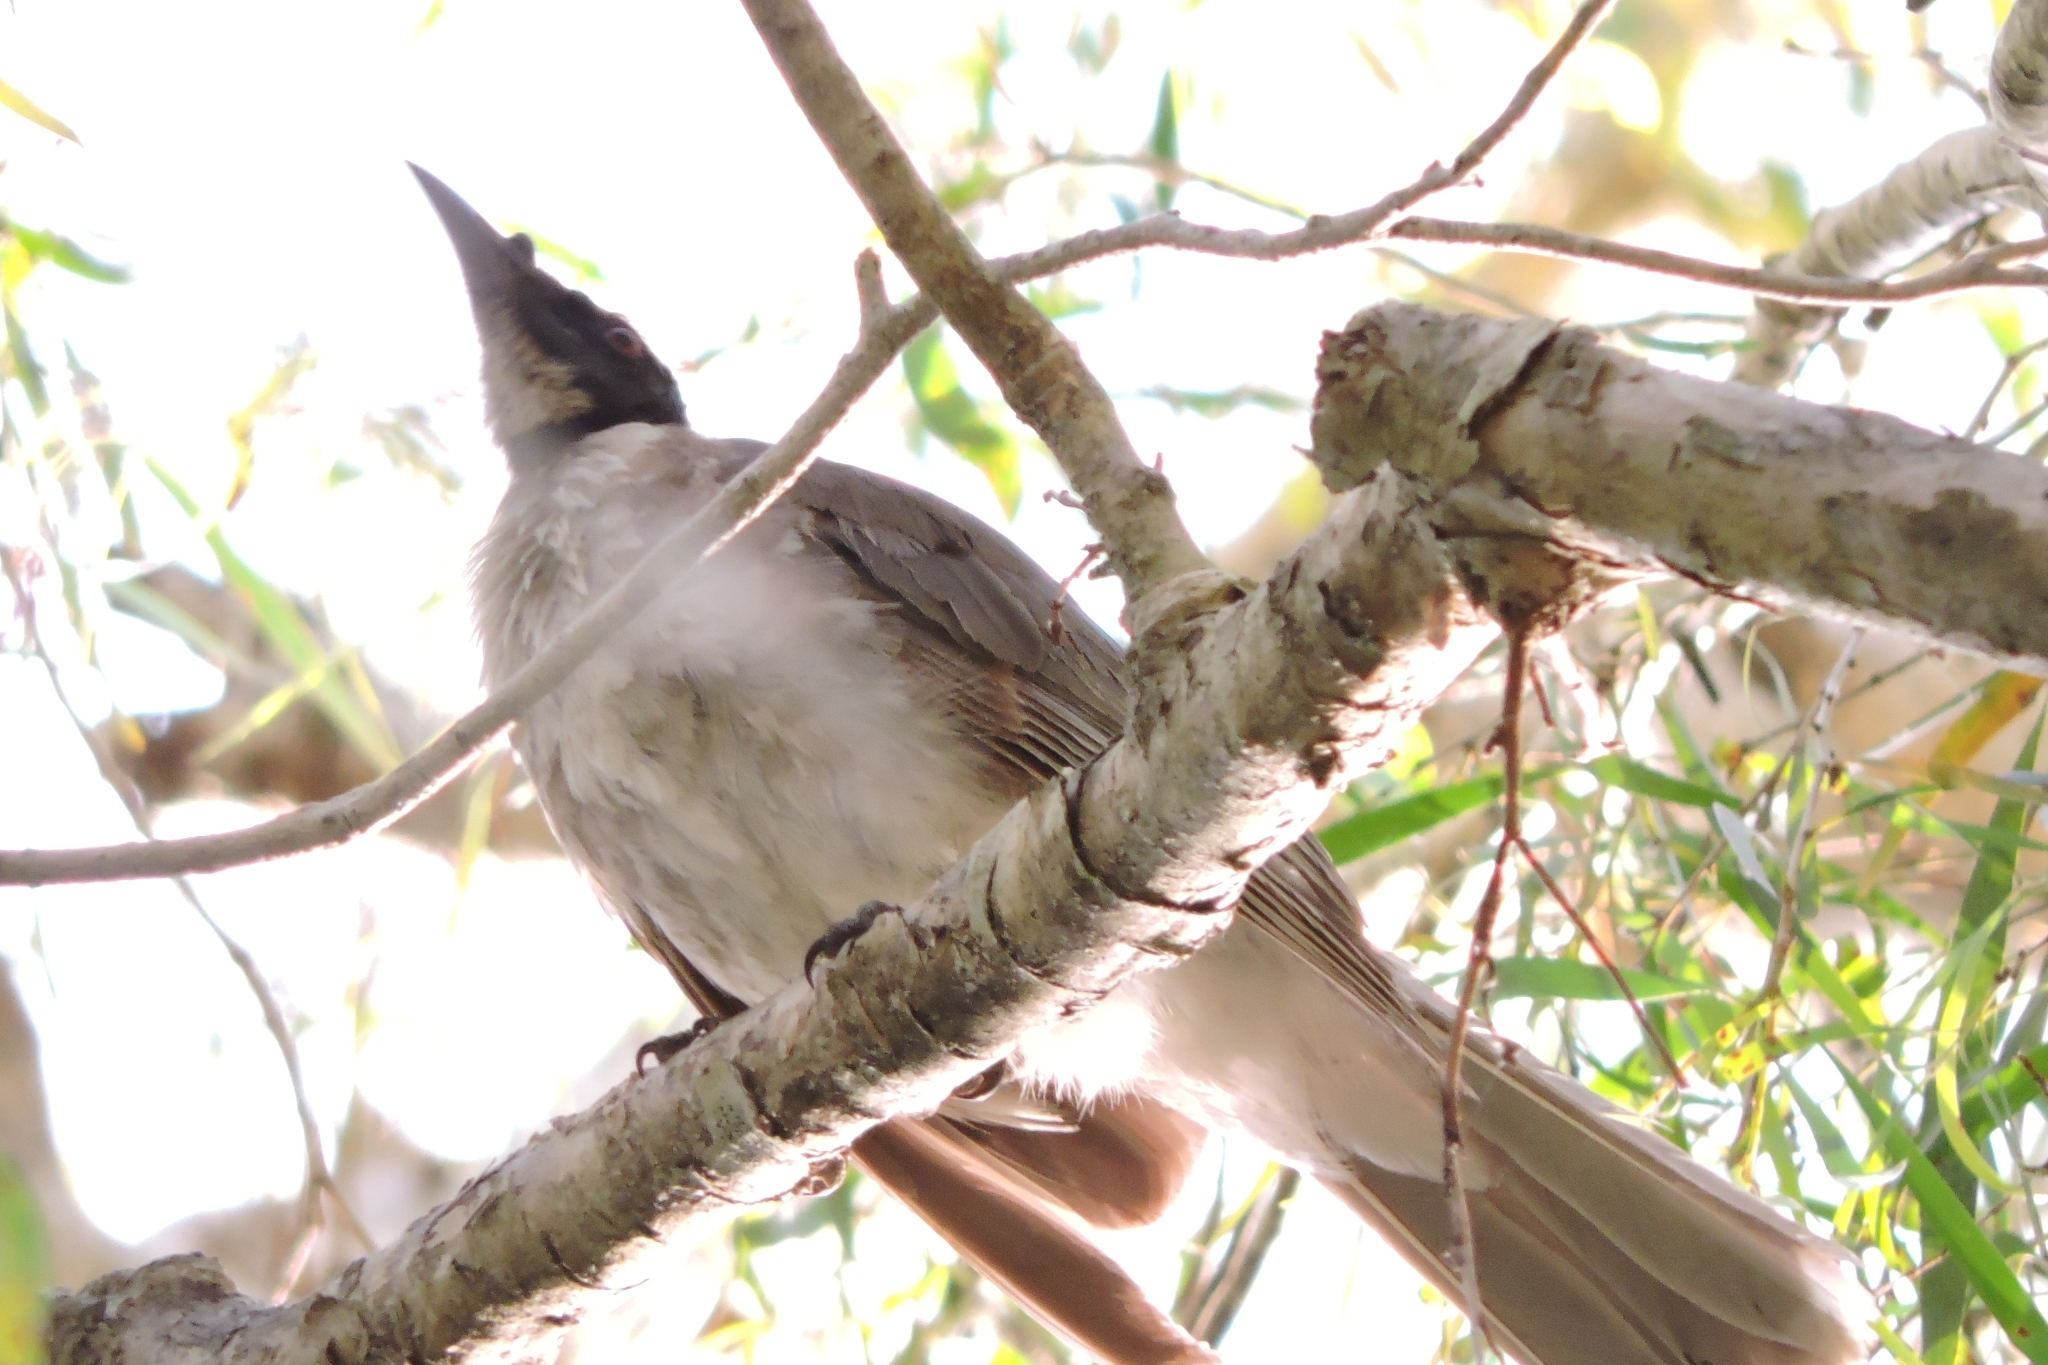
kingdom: Animalia
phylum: Chordata
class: Aves
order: Passeriformes
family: Meliphagidae
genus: Philemon
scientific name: Philemon corniculatus
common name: Noisy friarbird
